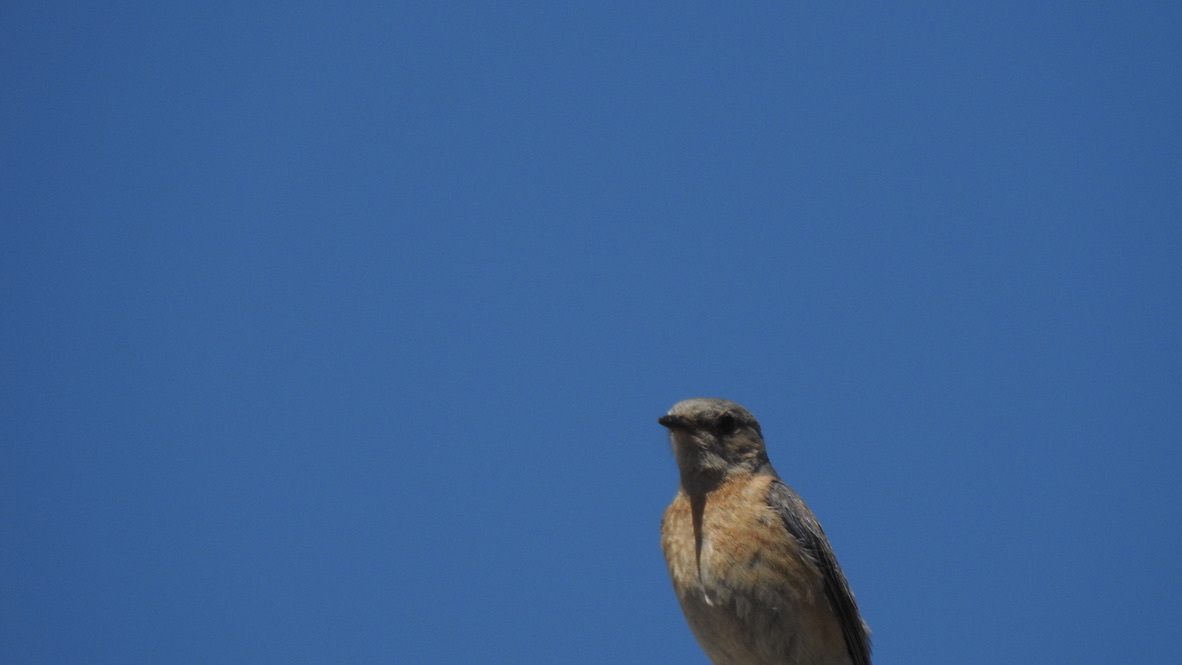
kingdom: Animalia
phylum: Chordata
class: Aves
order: Passeriformes
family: Turdidae
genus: Sialia
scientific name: Sialia mexicana
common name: Western bluebird
